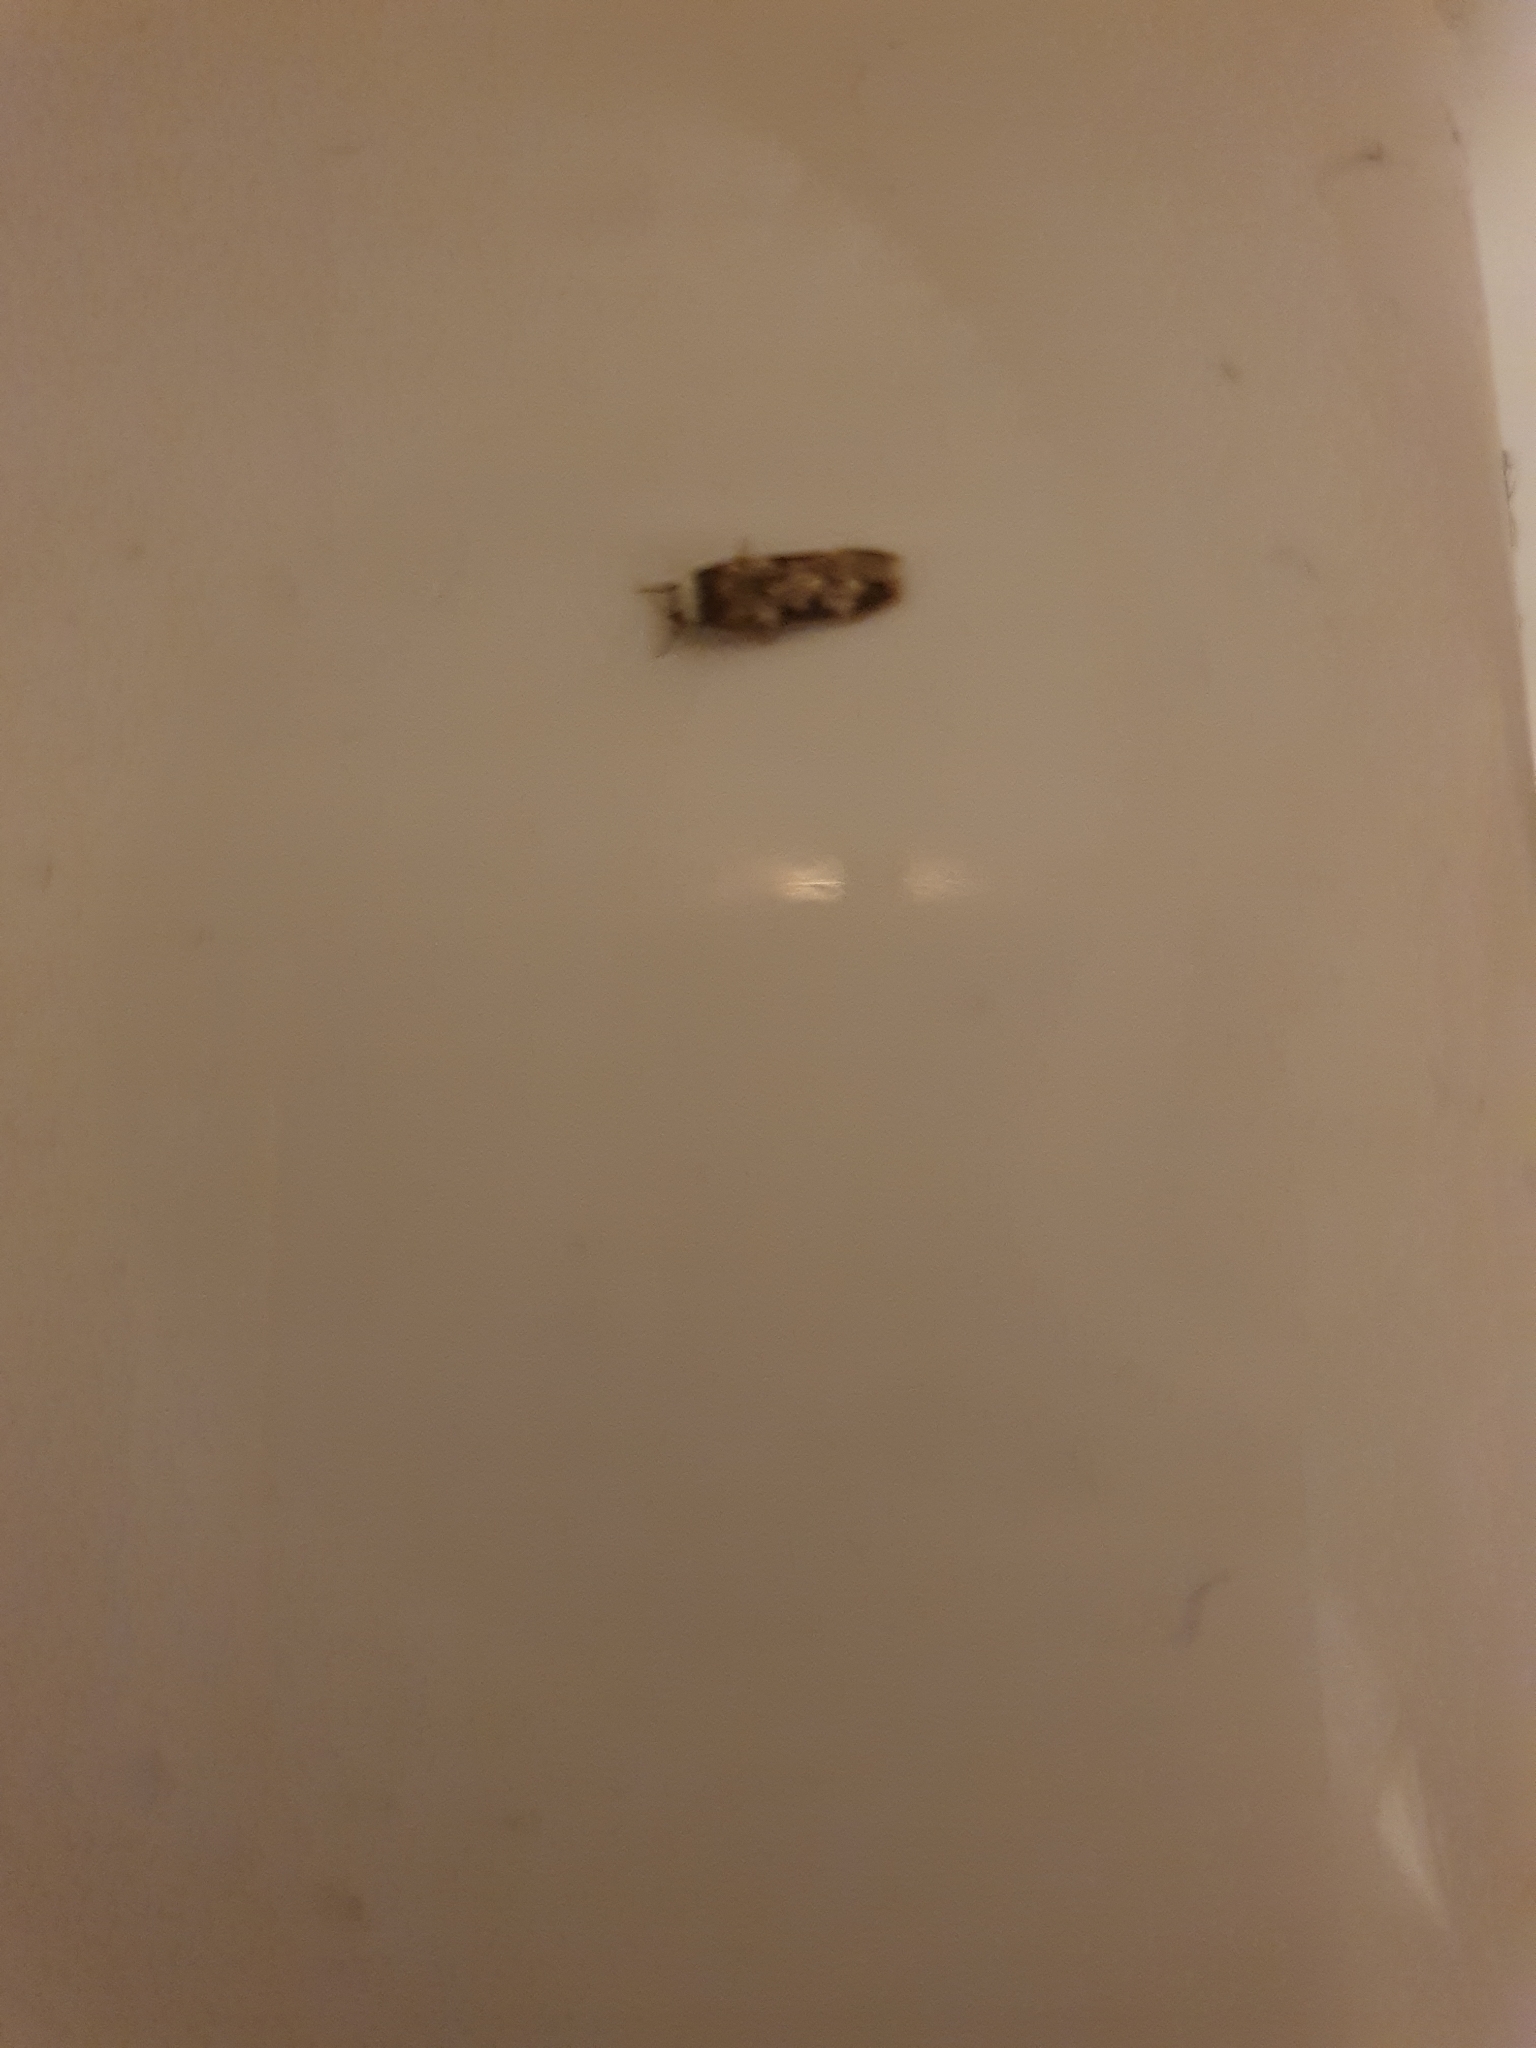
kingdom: Animalia
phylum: Arthropoda
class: Insecta
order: Lepidoptera
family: Oecophoridae
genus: Endrosis
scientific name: Endrosis sarcitrella
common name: White-shouldered house moth
